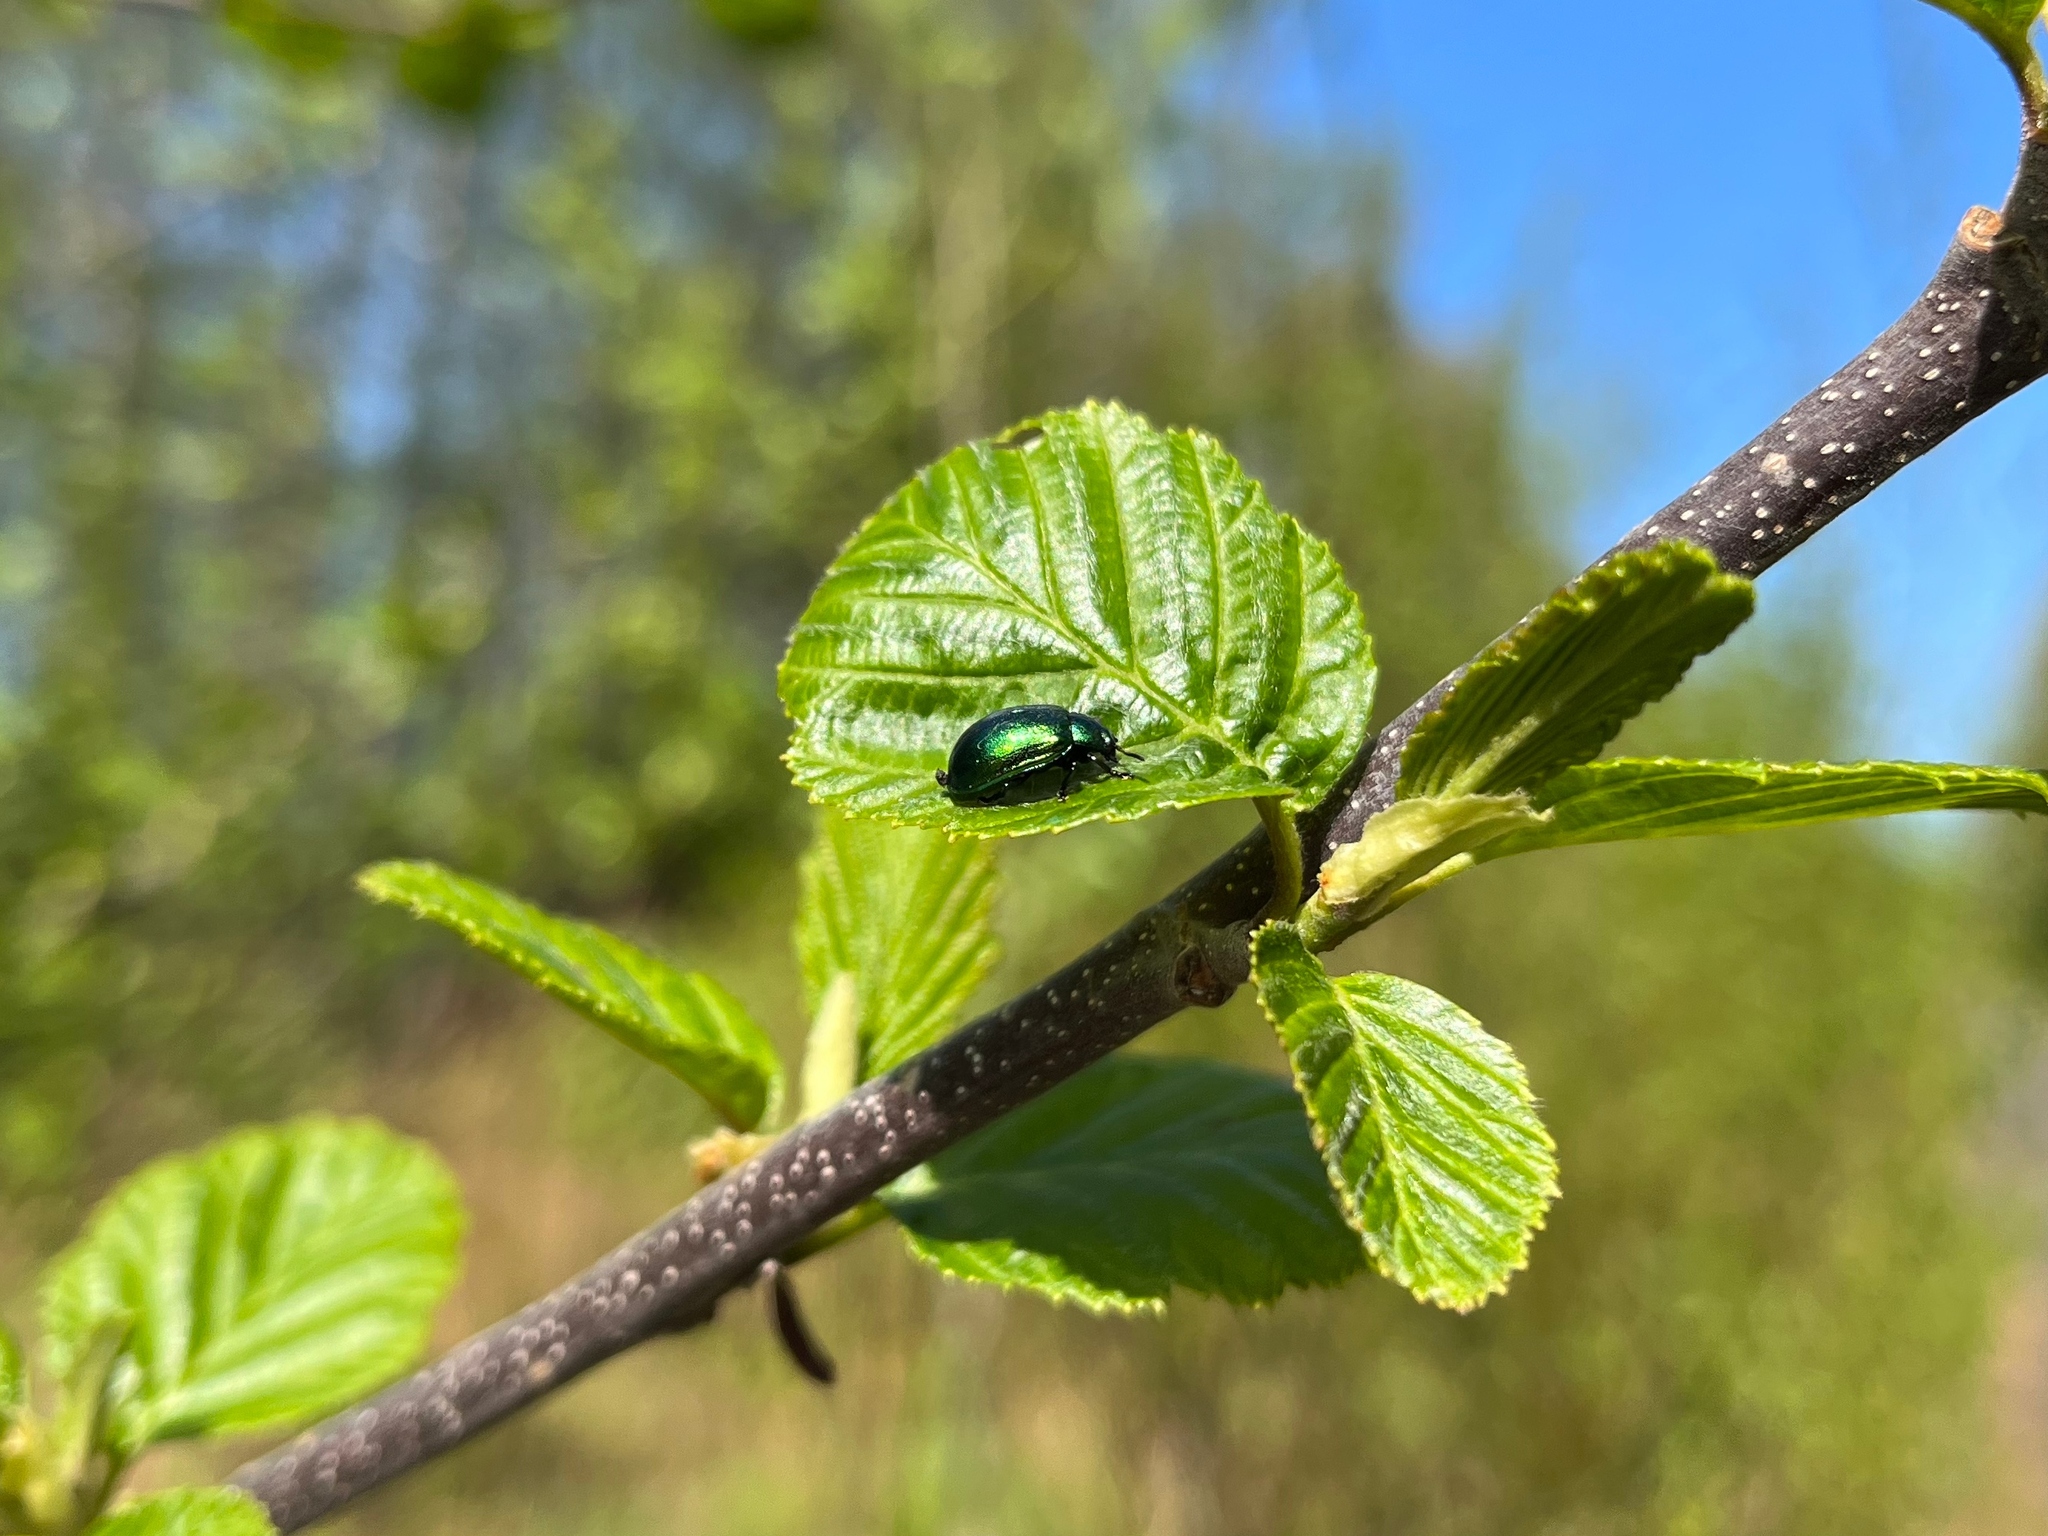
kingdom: Animalia
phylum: Arthropoda
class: Insecta
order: Coleoptera
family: Chrysomelidae
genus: Plagiosterna
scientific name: Plagiosterna aenea
